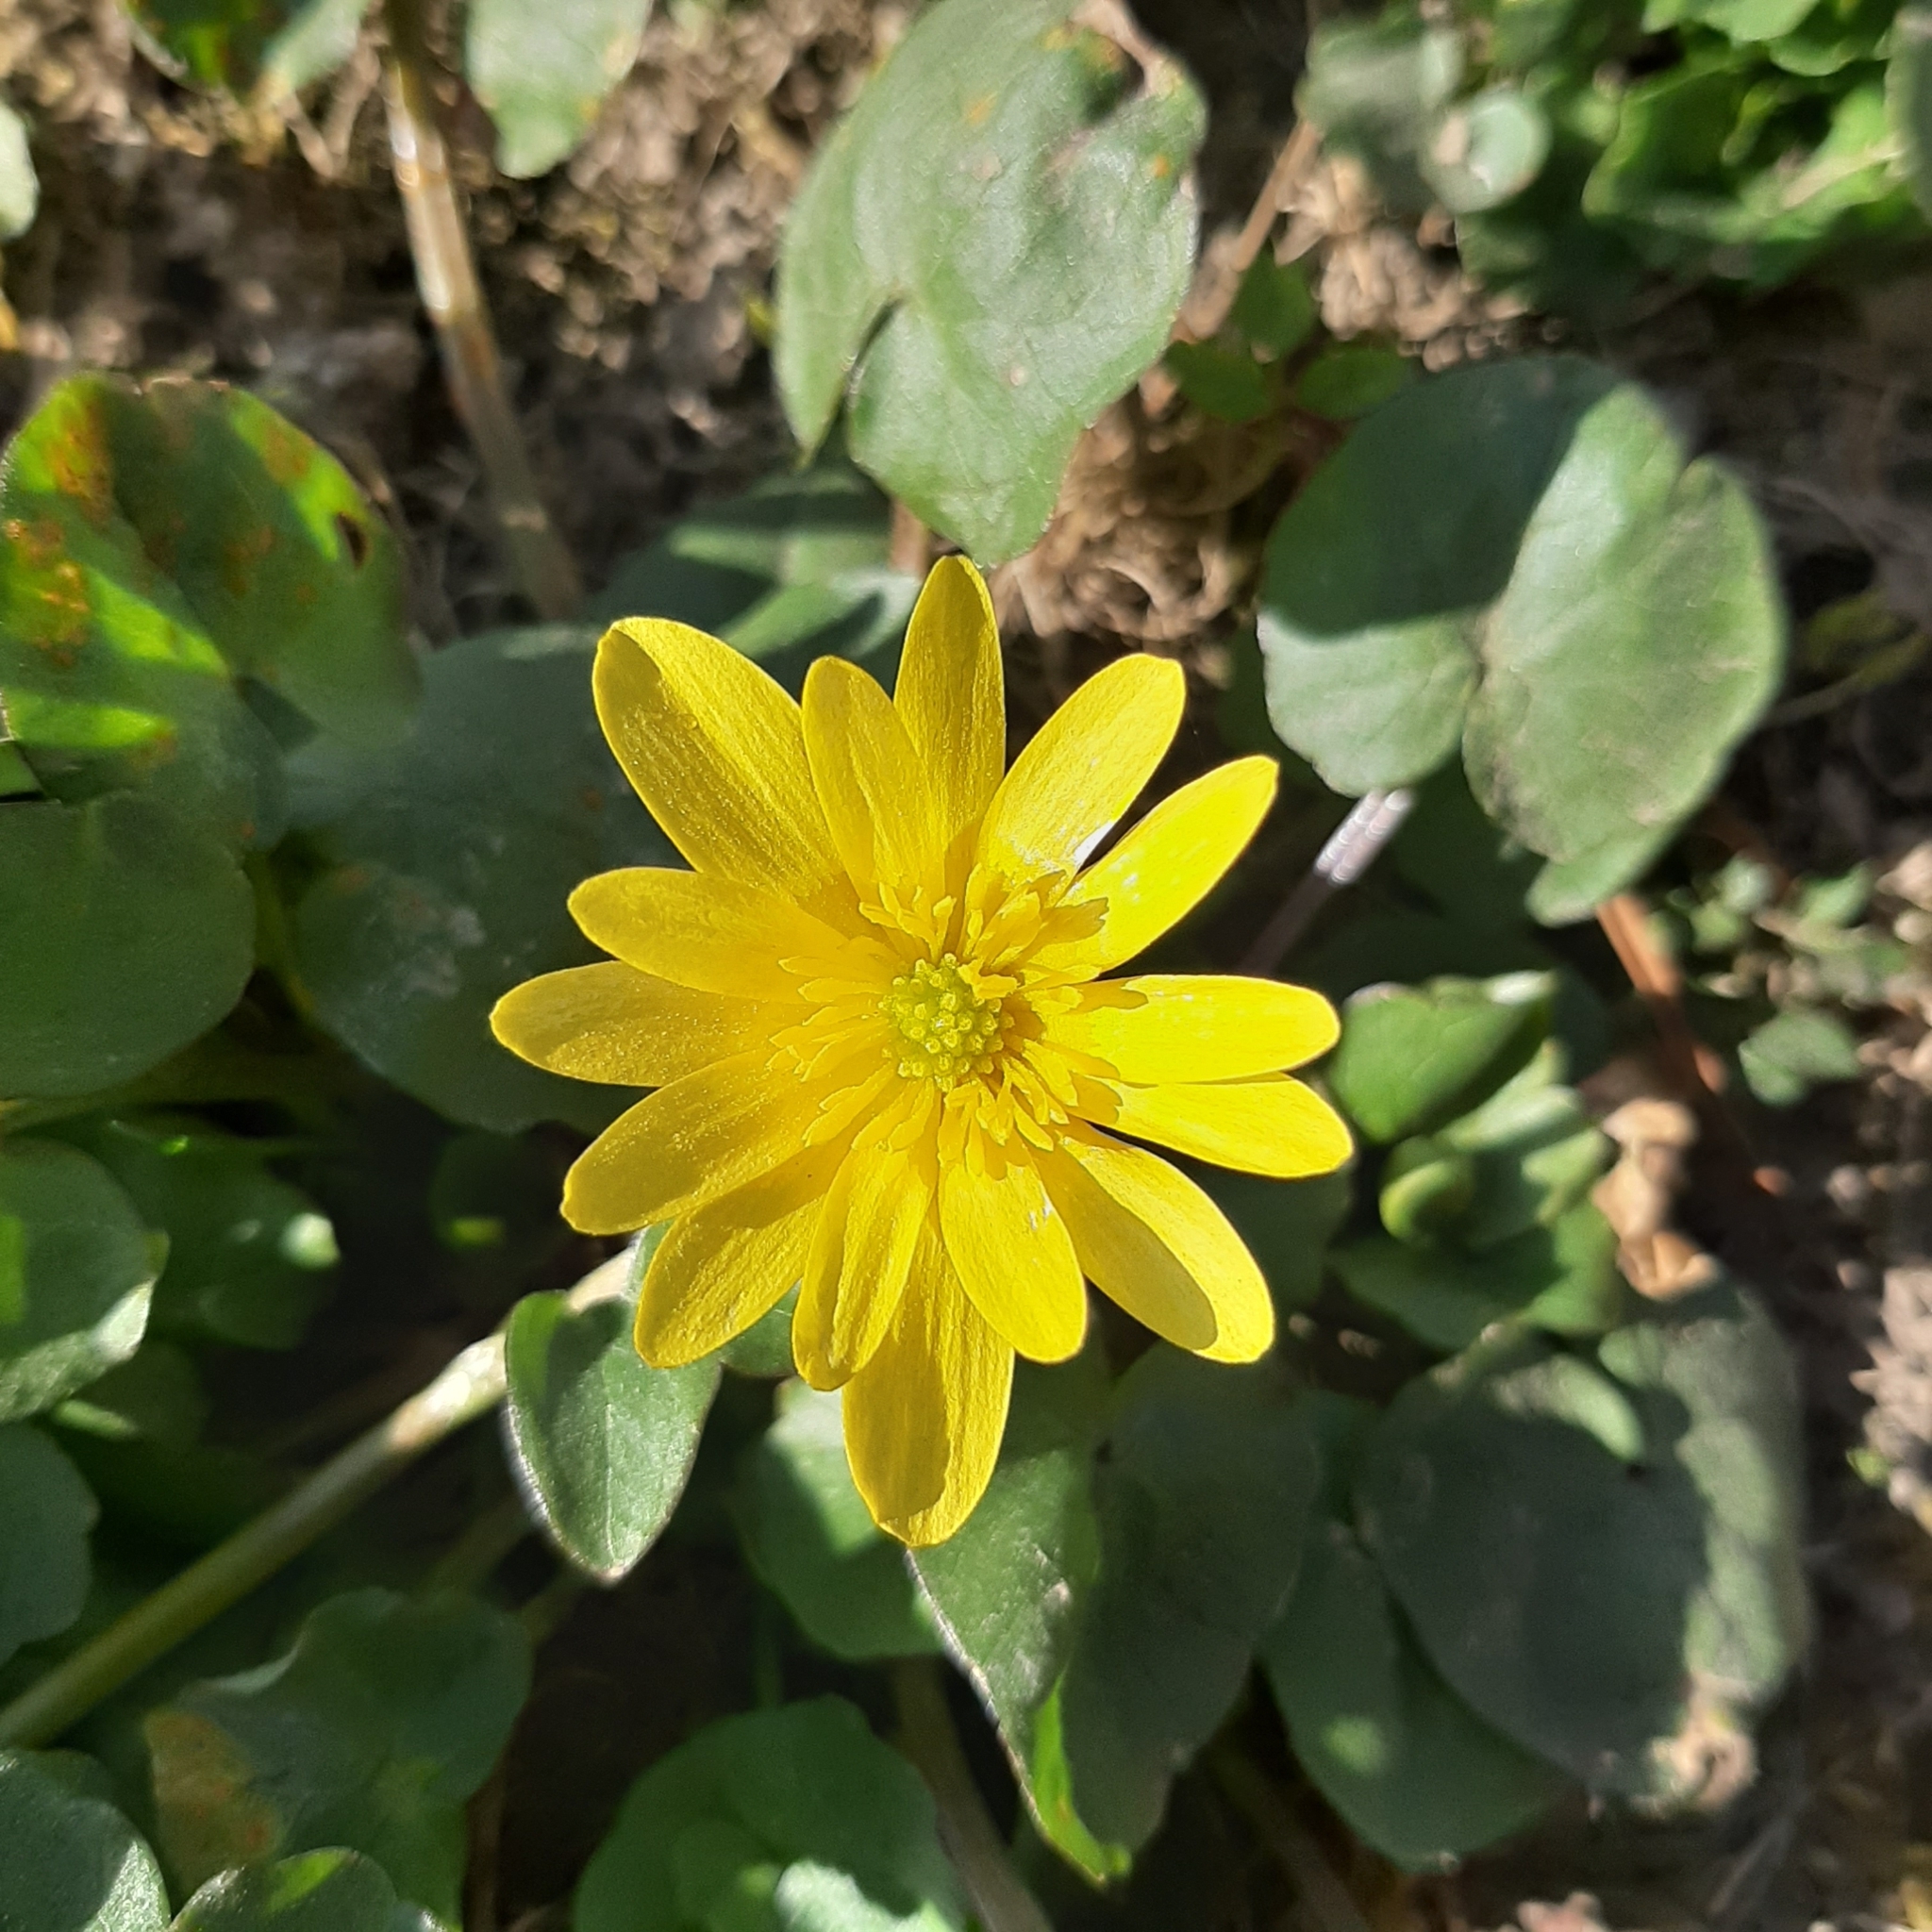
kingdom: Plantae
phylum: Tracheophyta
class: Magnoliopsida
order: Ranunculales
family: Ranunculaceae
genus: Ficaria
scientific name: Ficaria verna
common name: Lesser celandine
